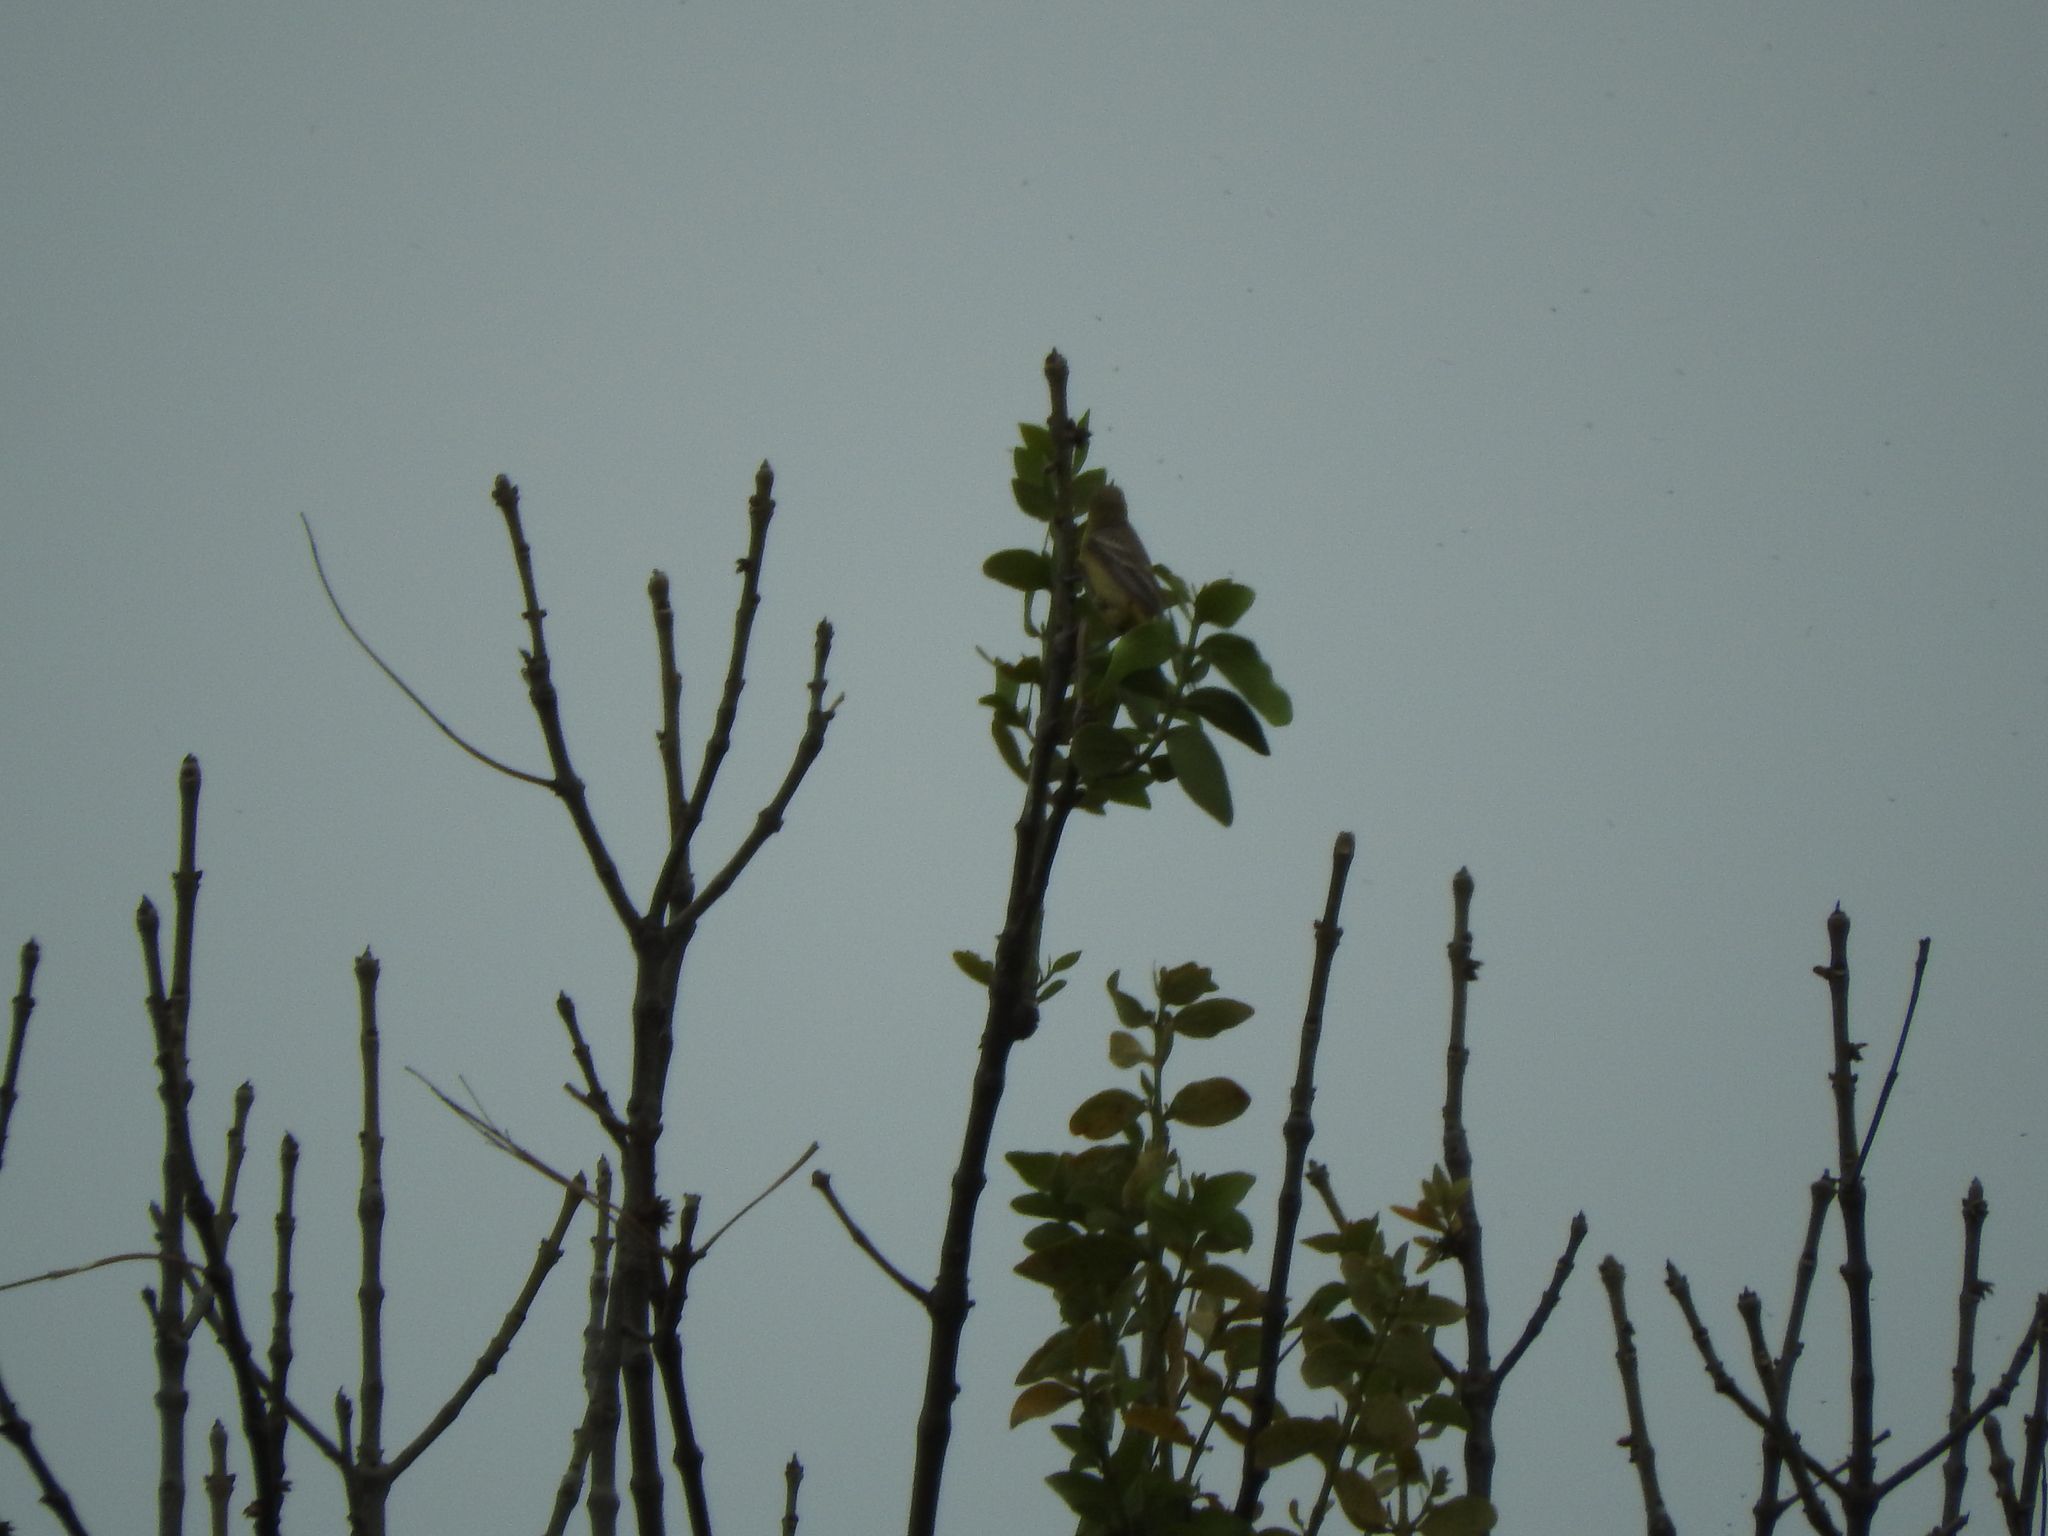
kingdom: Animalia
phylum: Chordata
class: Aves
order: Passeriformes
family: Fringillidae
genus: Spinus
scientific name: Spinus psaltria
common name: Lesser goldfinch
